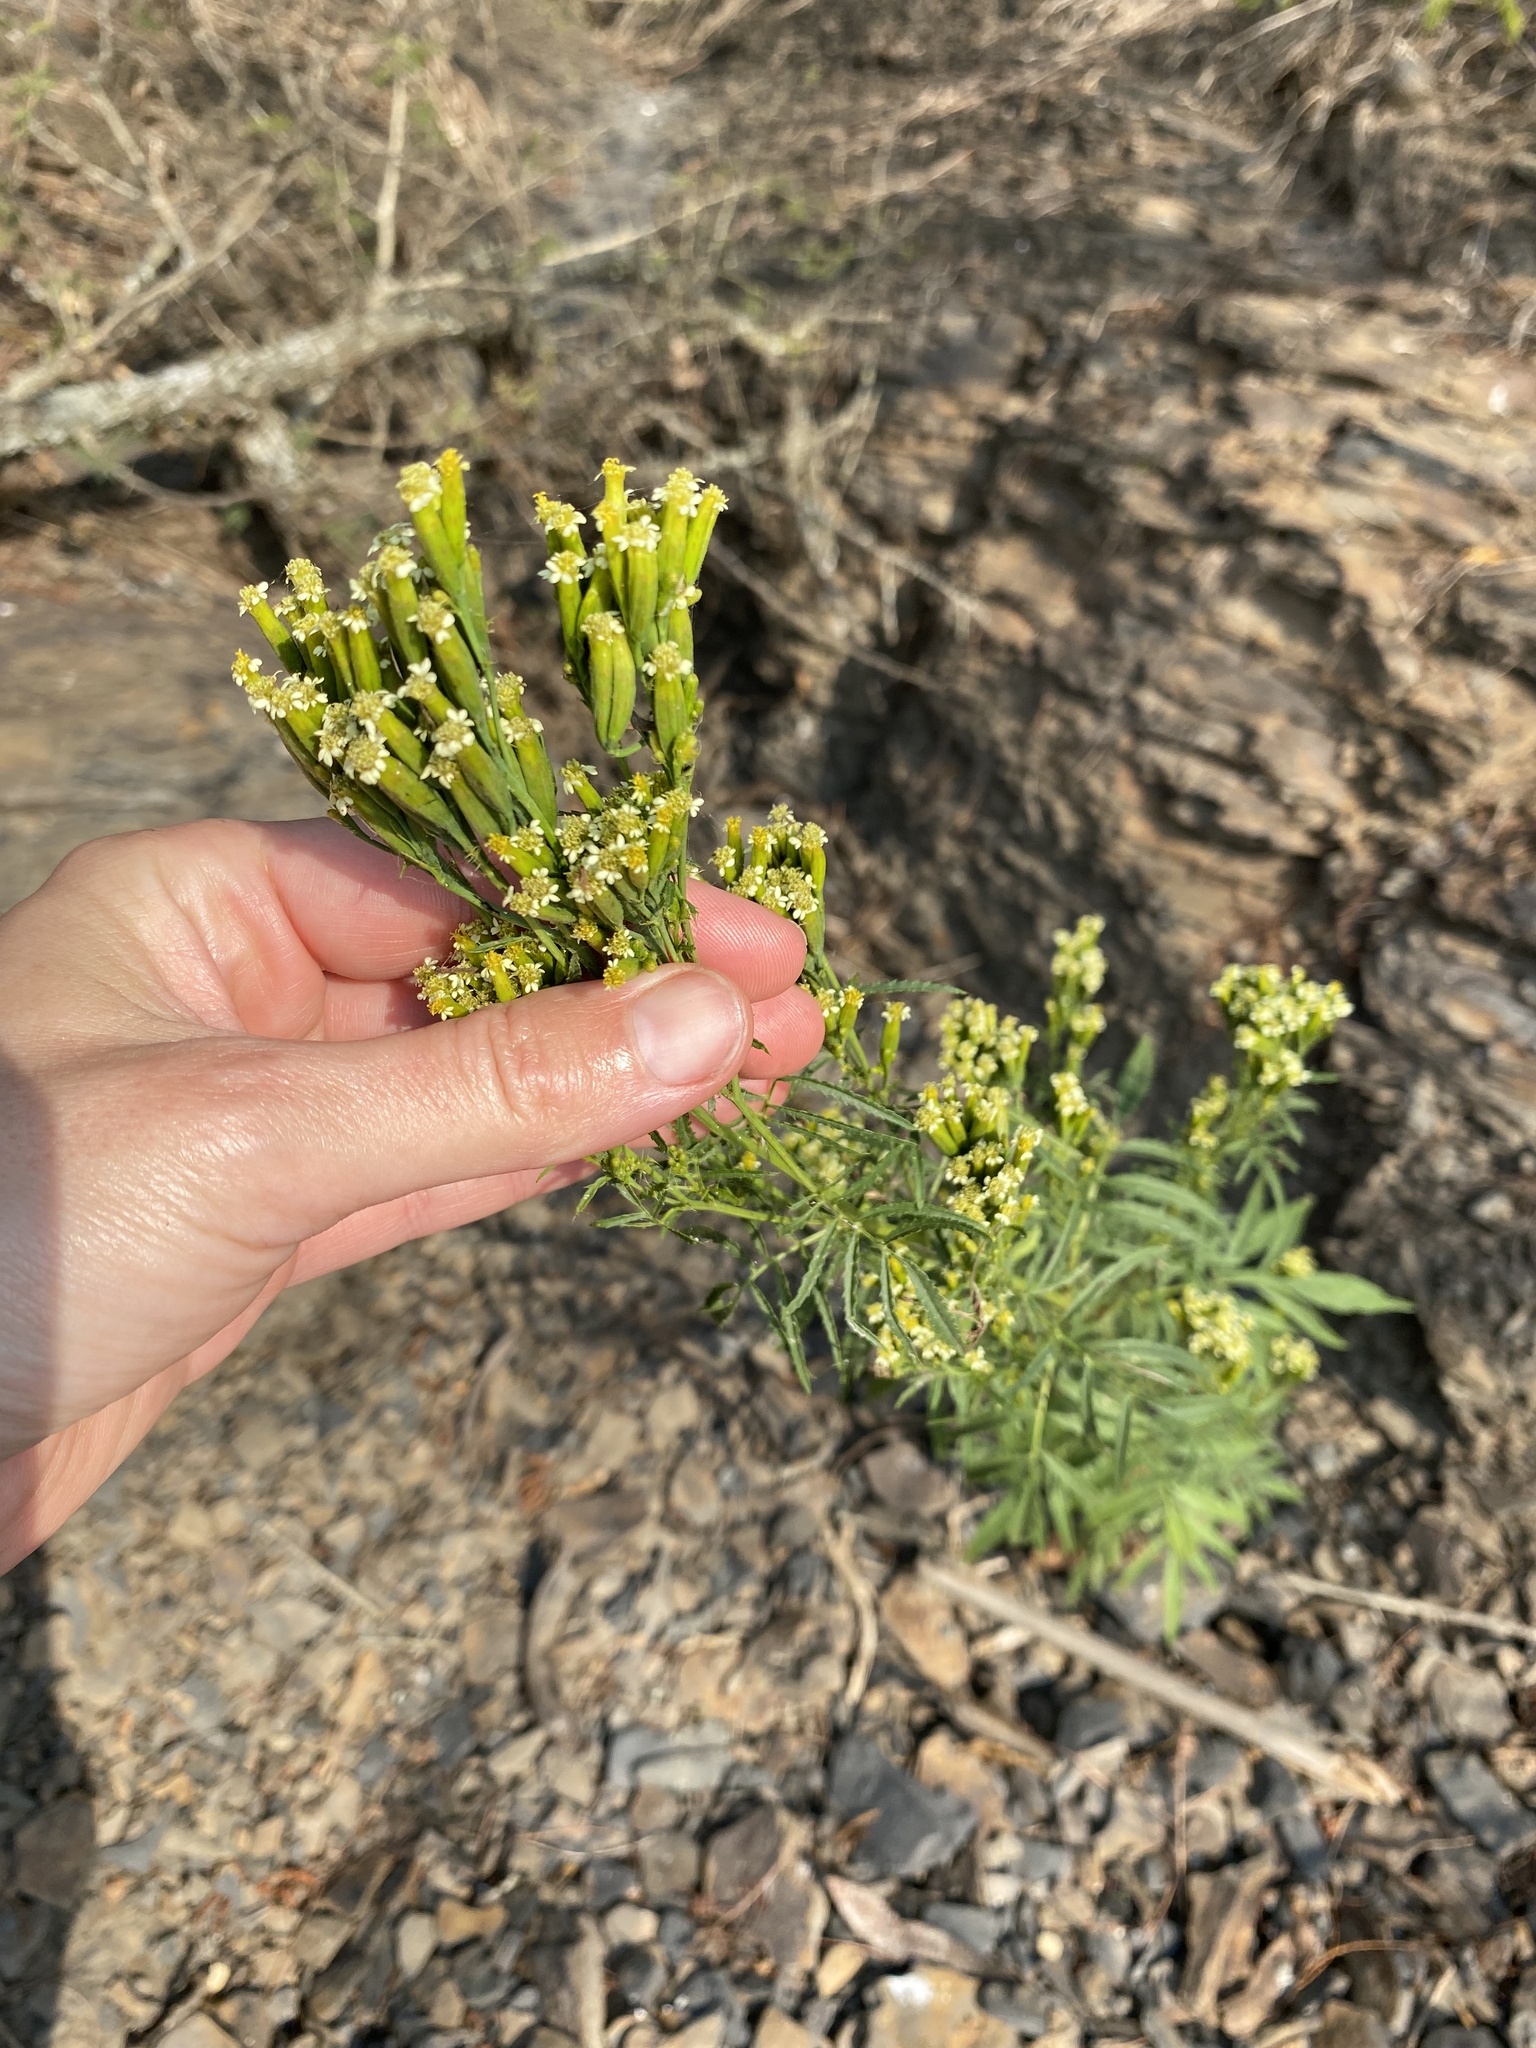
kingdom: Plantae
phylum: Tracheophyta
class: Magnoliopsida
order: Asterales
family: Asteraceae
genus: Tagetes
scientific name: Tagetes minuta
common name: Muster john henry
